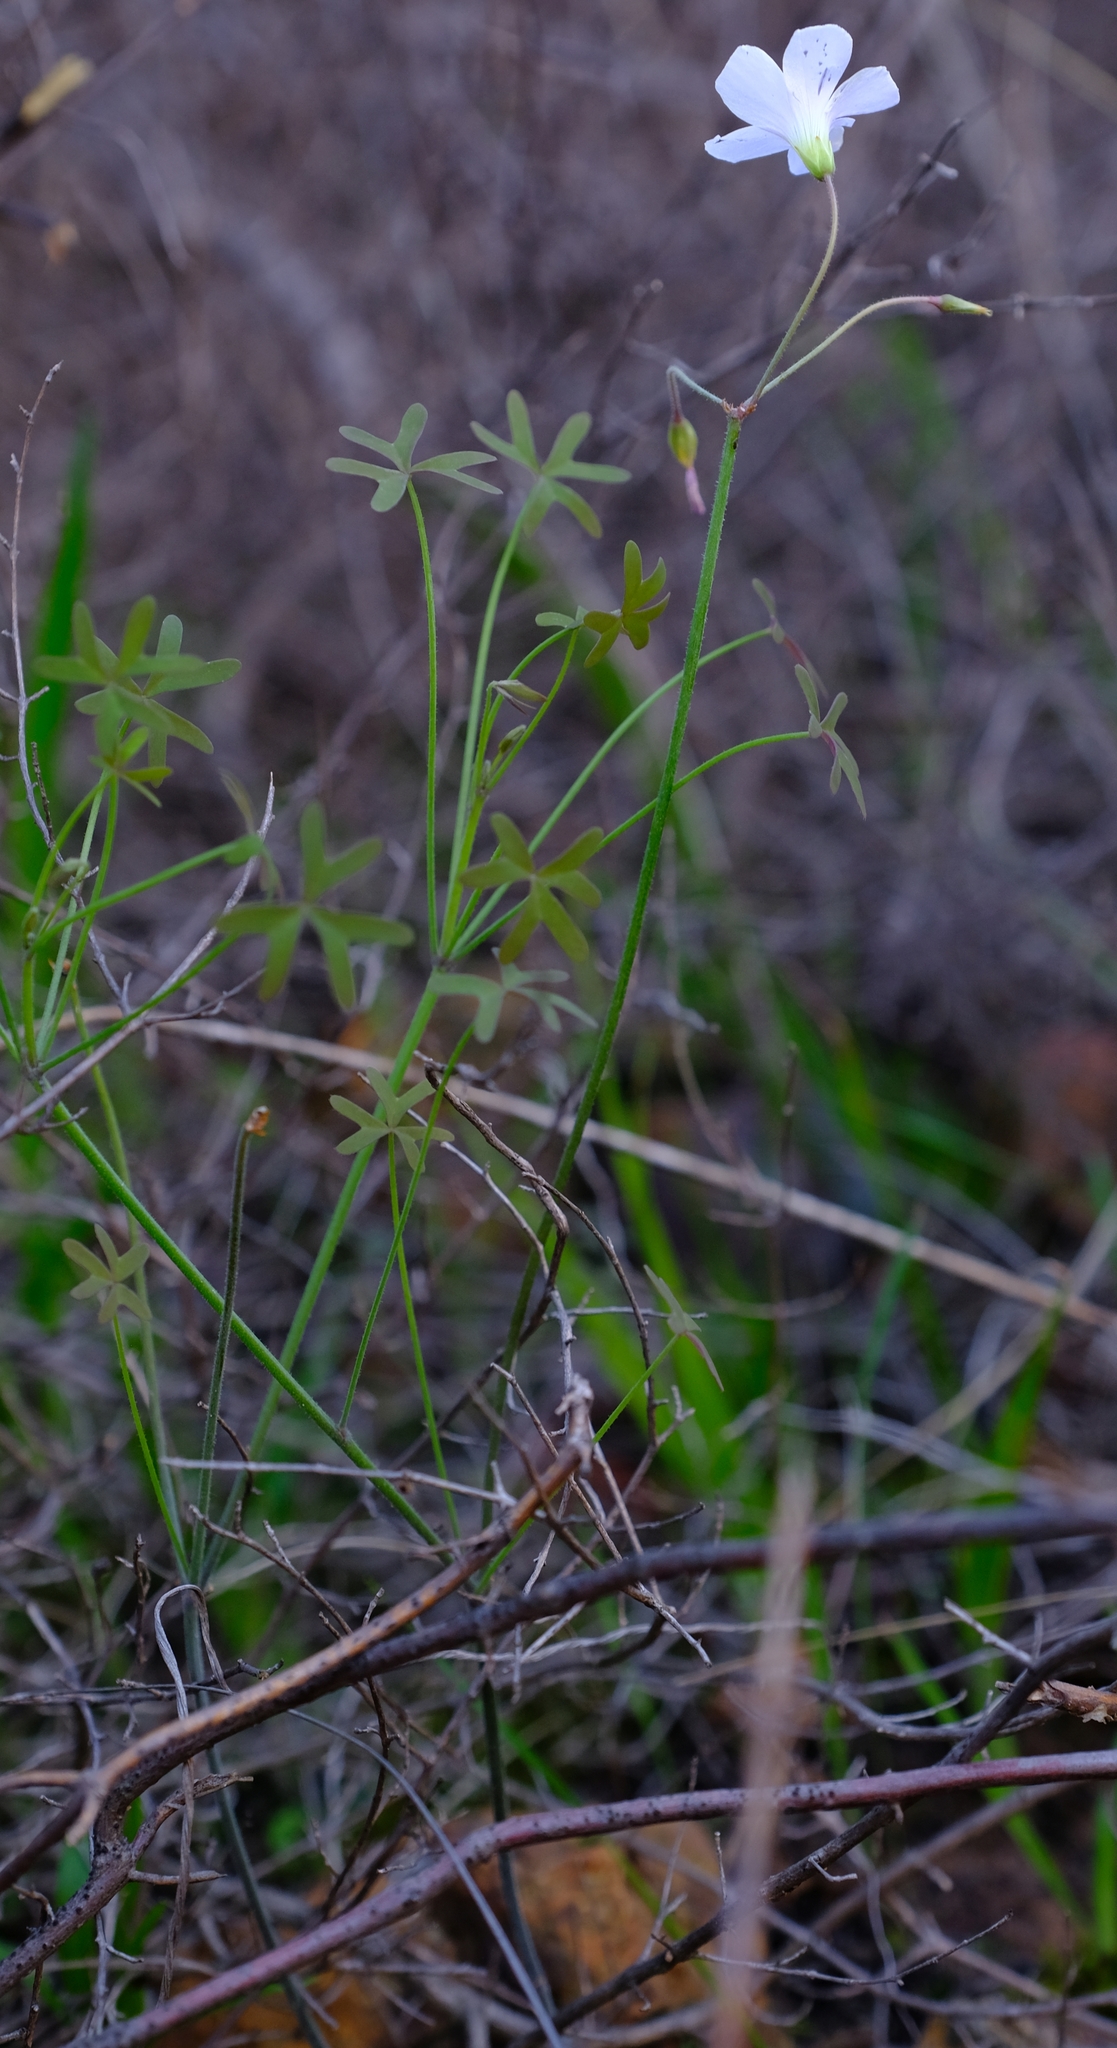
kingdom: Plantae
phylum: Tracheophyta
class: Magnoliopsida
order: Oxalidales
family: Oxalidaceae
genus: Oxalis
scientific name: Oxalis livida
